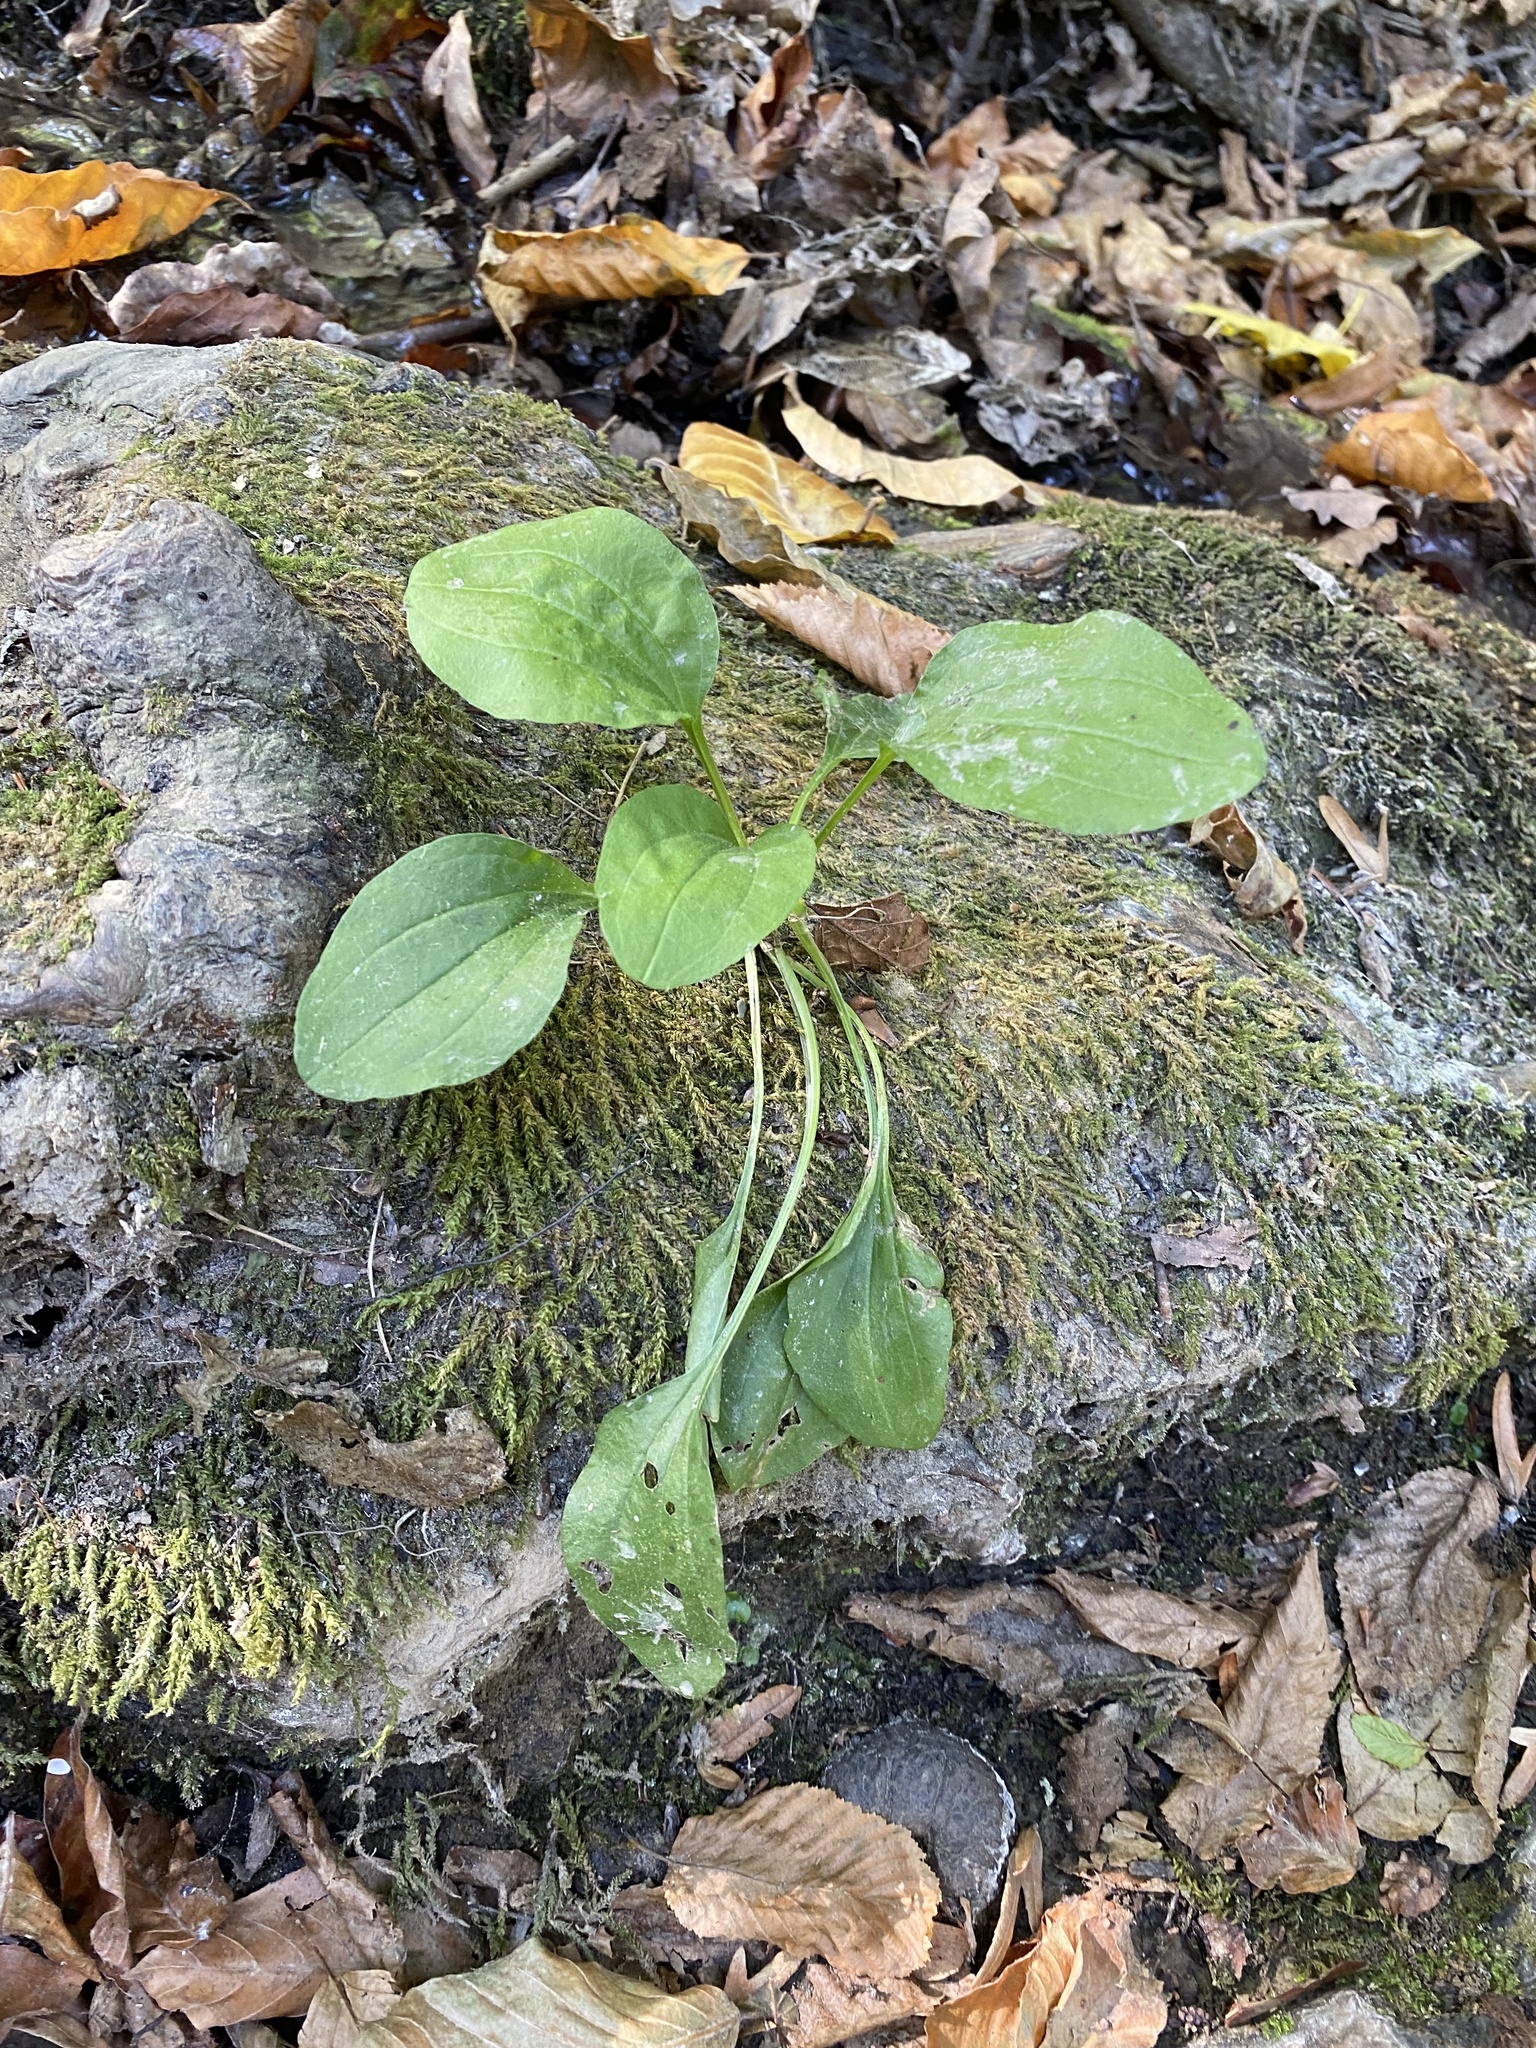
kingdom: Plantae
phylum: Tracheophyta
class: Magnoliopsida
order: Lamiales
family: Plantaginaceae
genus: Plantago
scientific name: Plantago major
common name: Common plantain
